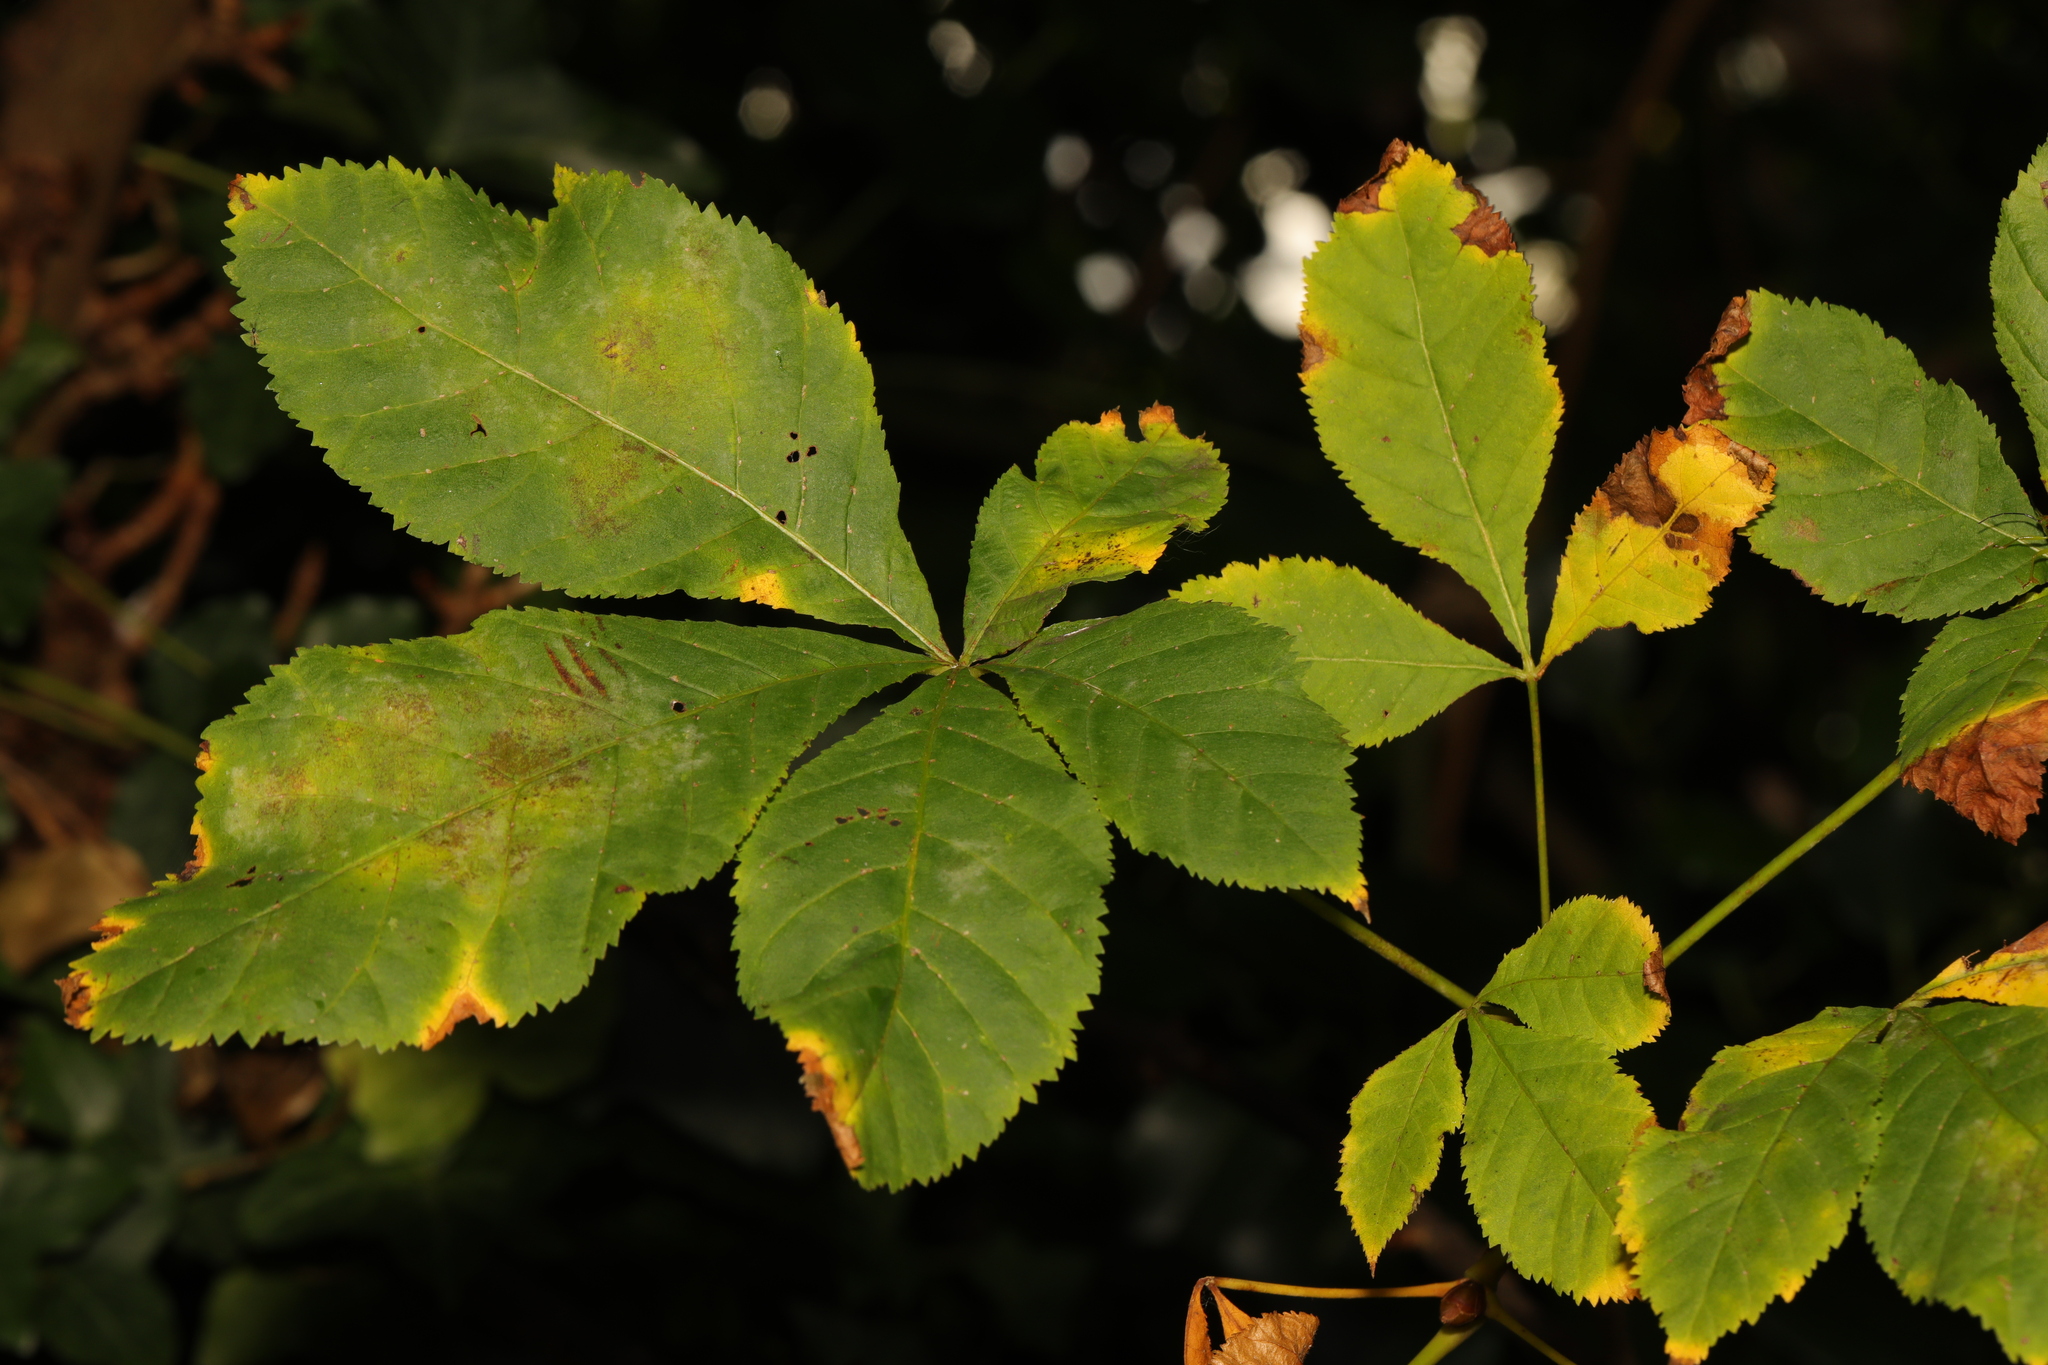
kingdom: Plantae
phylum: Tracheophyta
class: Magnoliopsida
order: Sapindales
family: Sapindaceae
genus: Aesculus
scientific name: Aesculus hippocastanum
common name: Horse-chestnut
